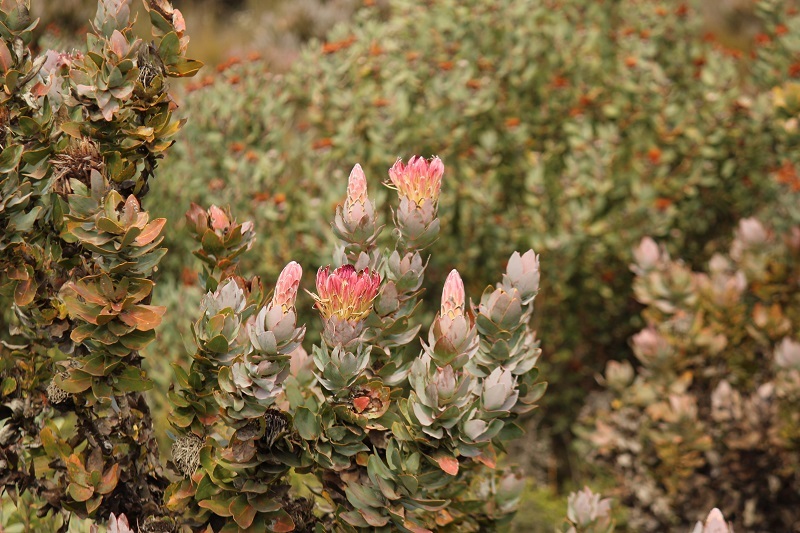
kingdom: Plantae
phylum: Tracheophyta
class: Magnoliopsida
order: Proteales
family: Proteaceae
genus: Protea
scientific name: Protea eximia
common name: Broad-leaved sugarbush
